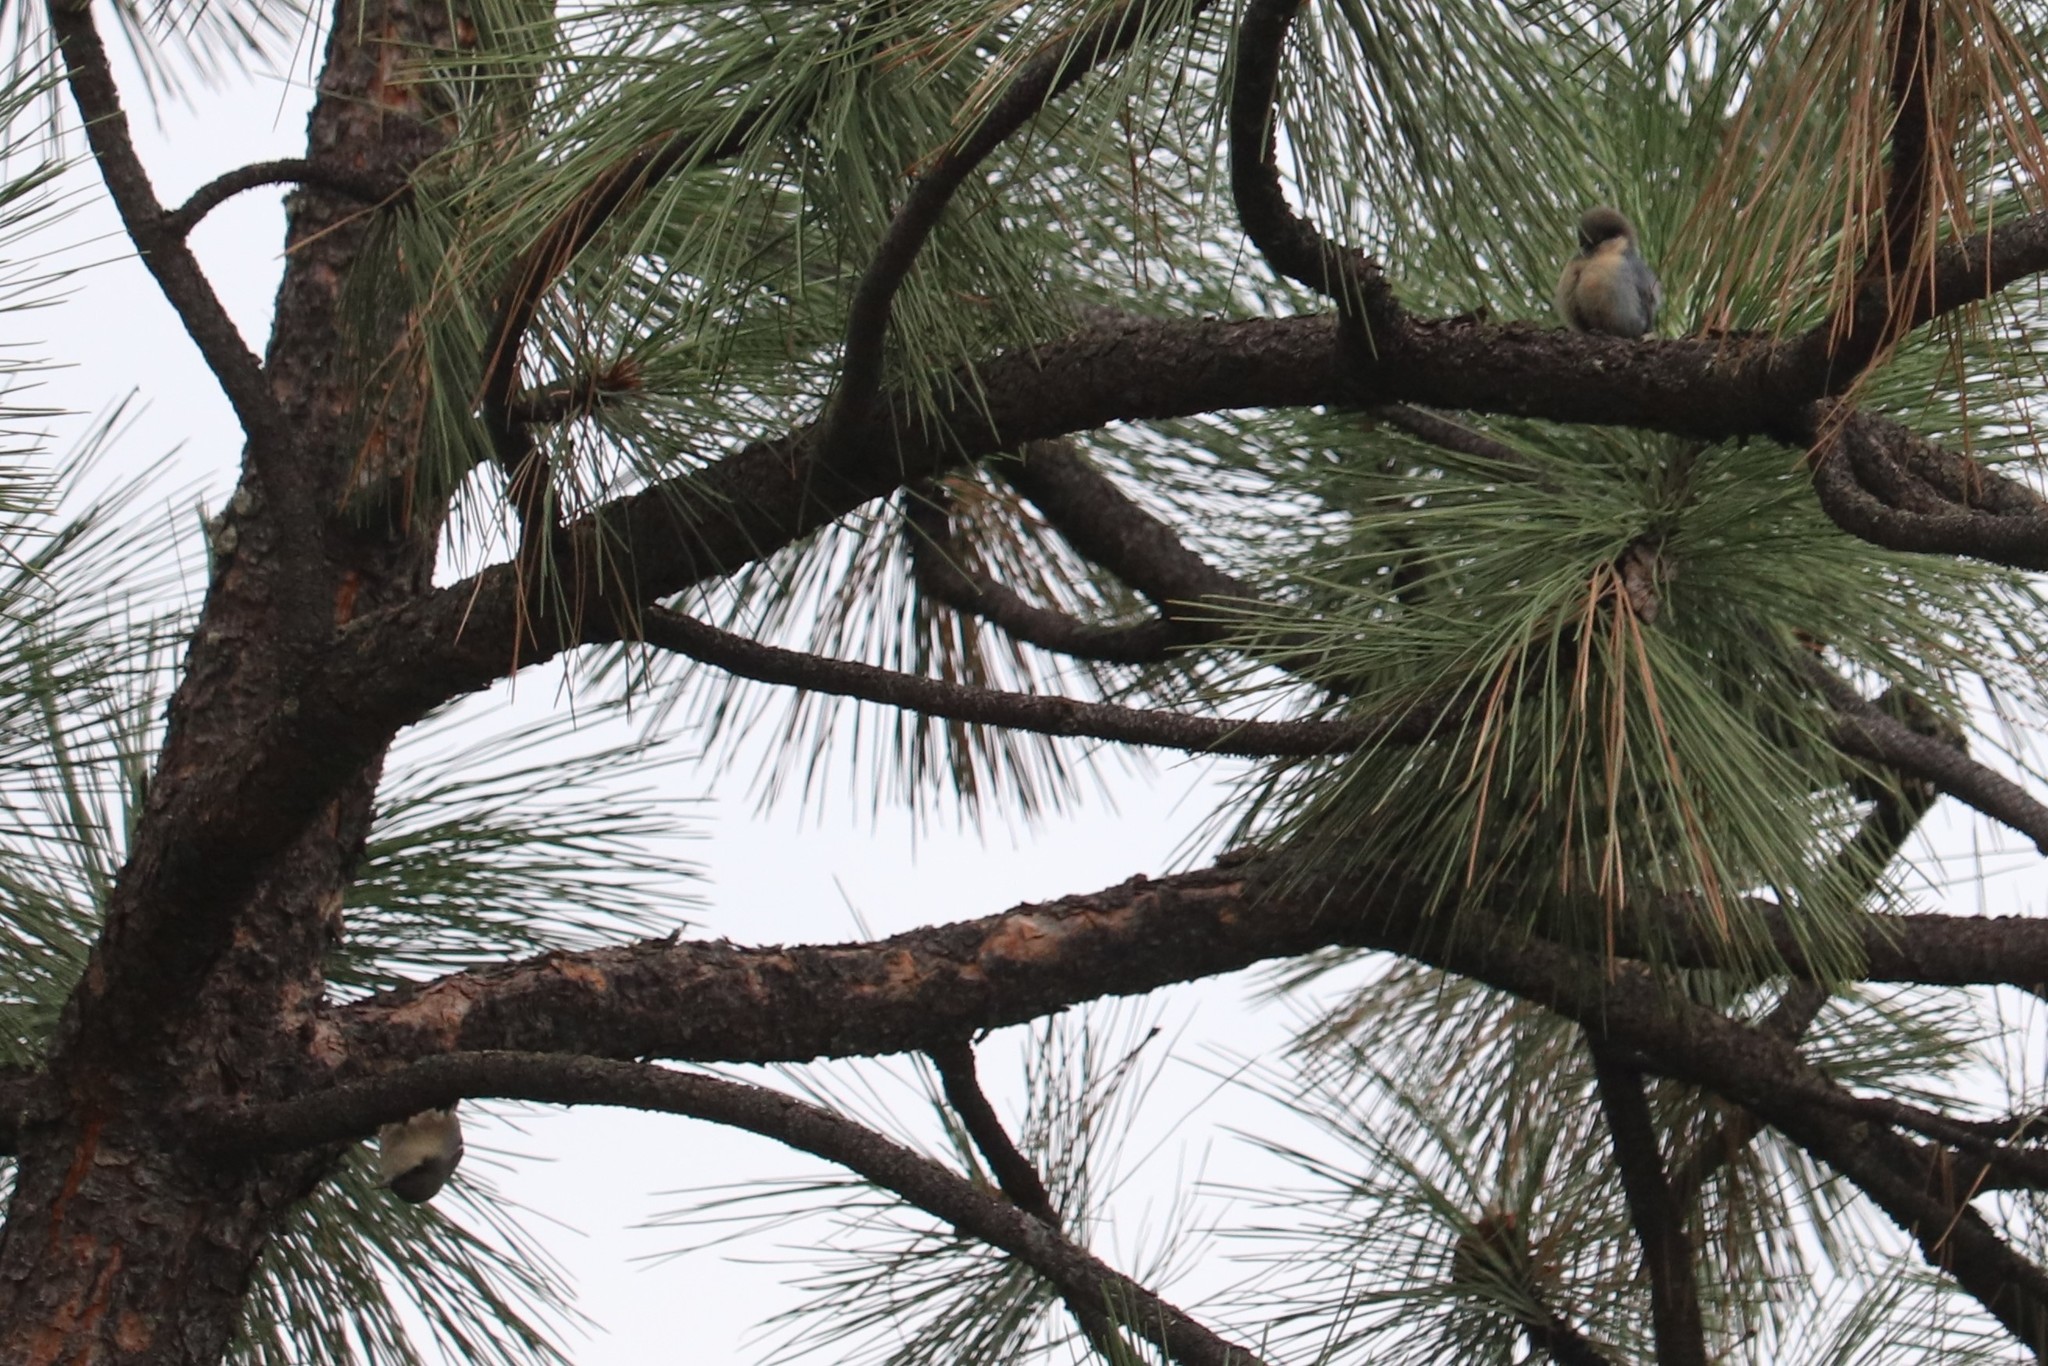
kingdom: Animalia
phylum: Chordata
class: Aves
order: Passeriformes
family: Sittidae
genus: Sitta
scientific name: Sitta pygmaea
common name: Pygmy nuthatch
